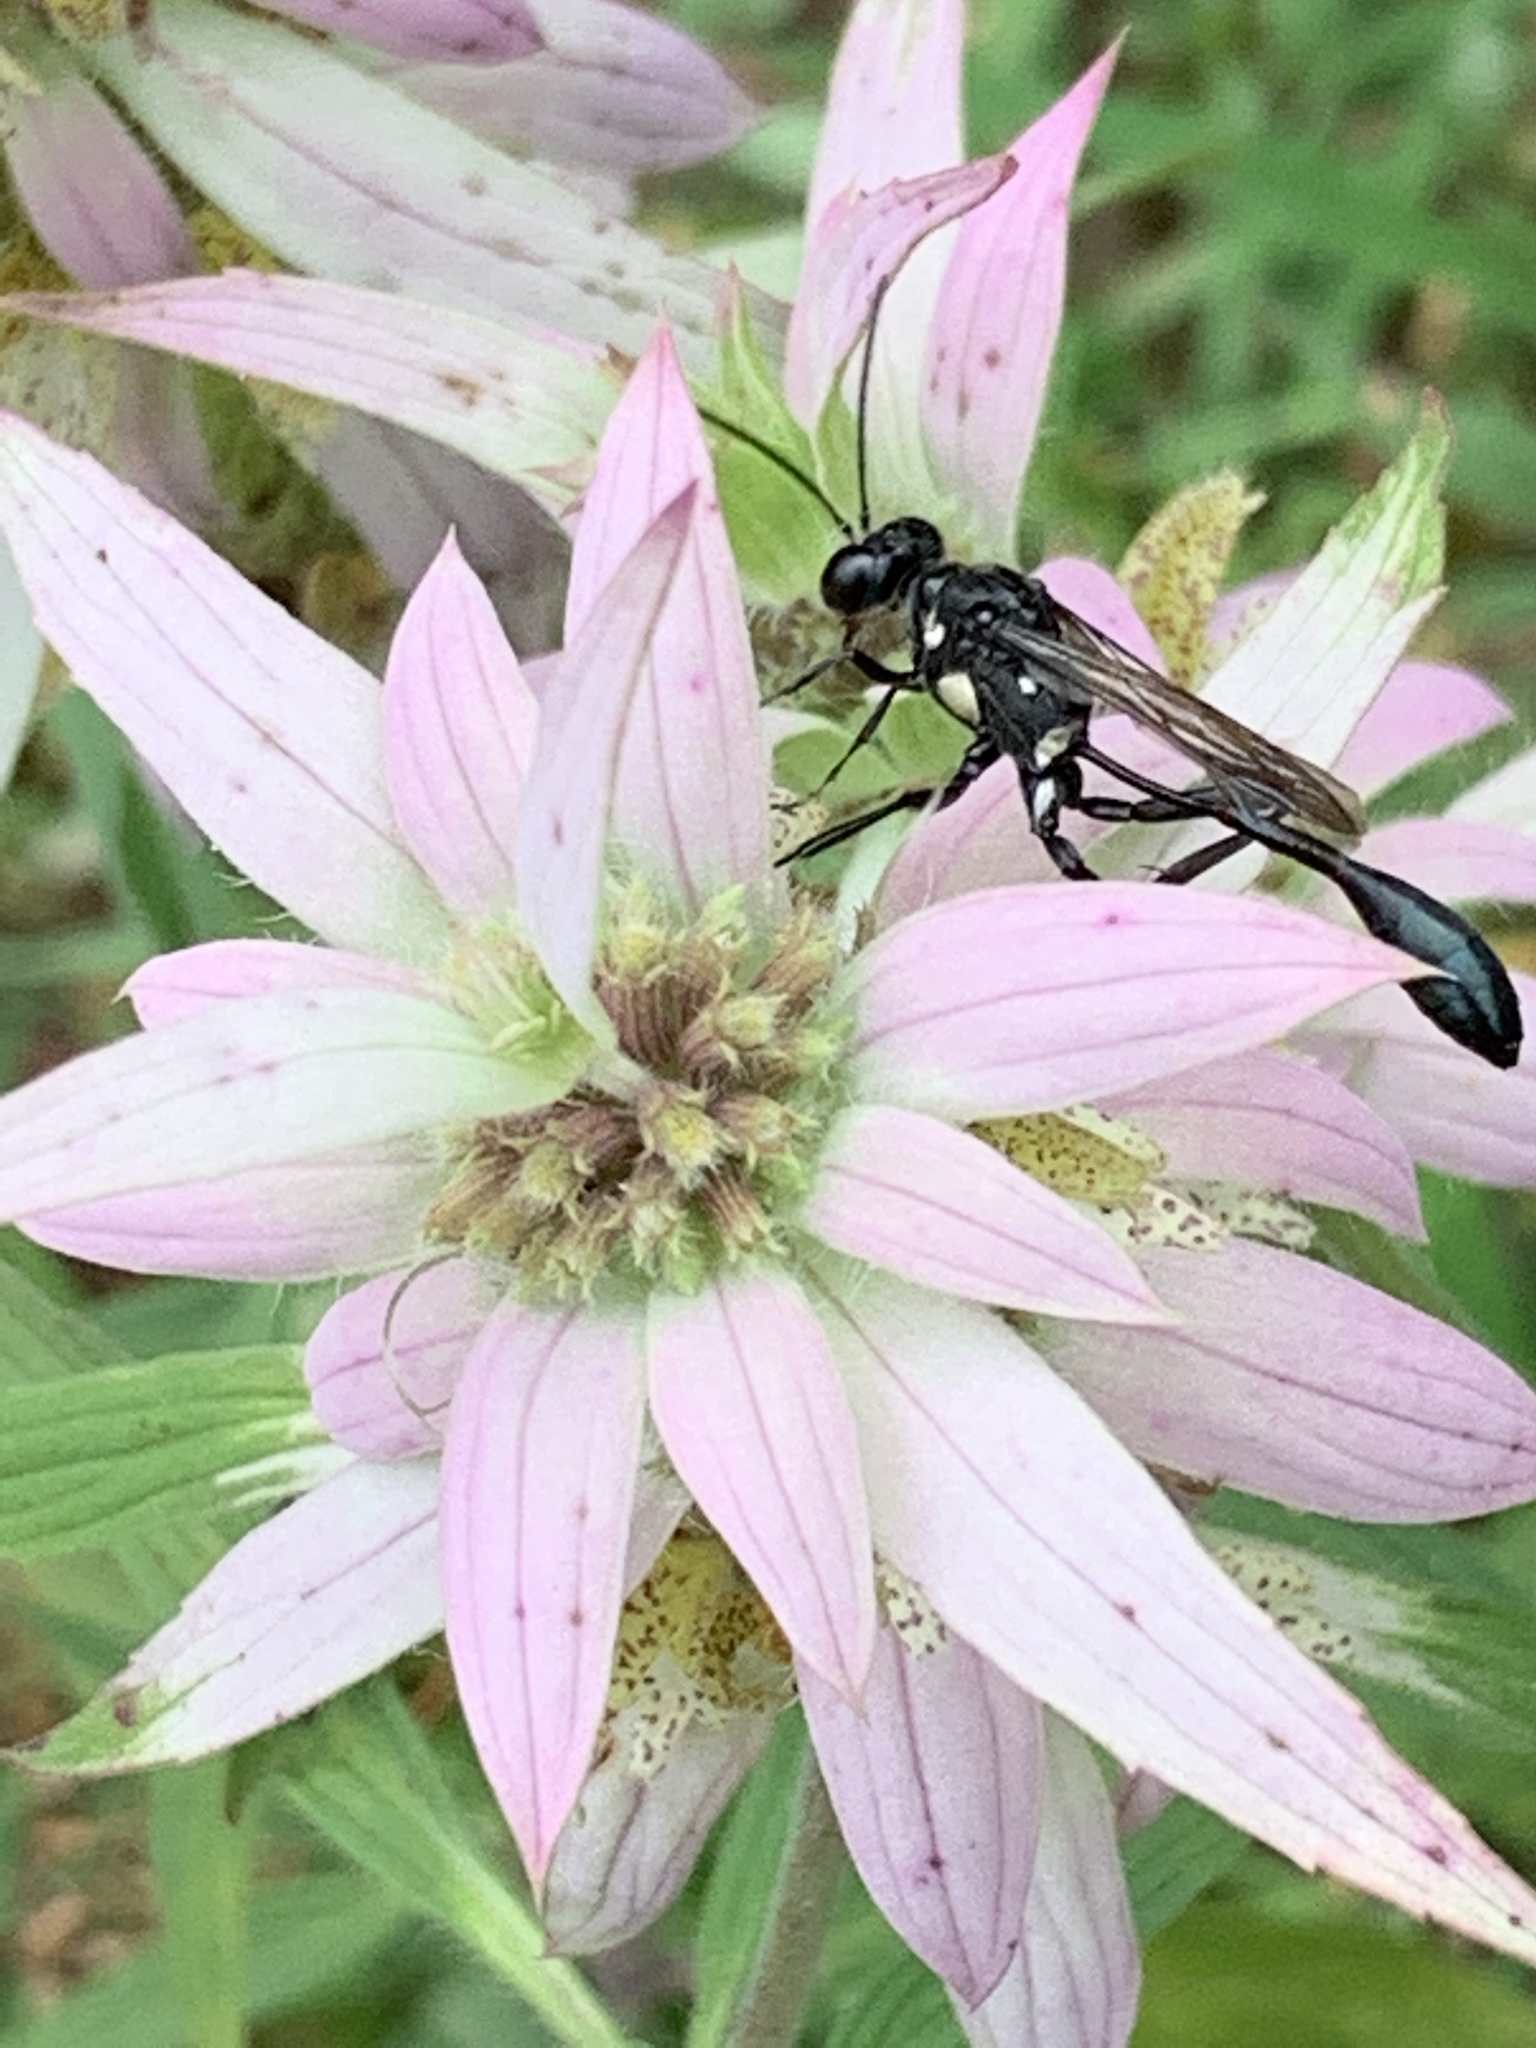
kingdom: Animalia
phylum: Arthropoda
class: Insecta
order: Hymenoptera
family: Sphecidae
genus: Eremnophila
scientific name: Eremnophila aureonotata
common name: Gold-marked thread-waisted wasp
